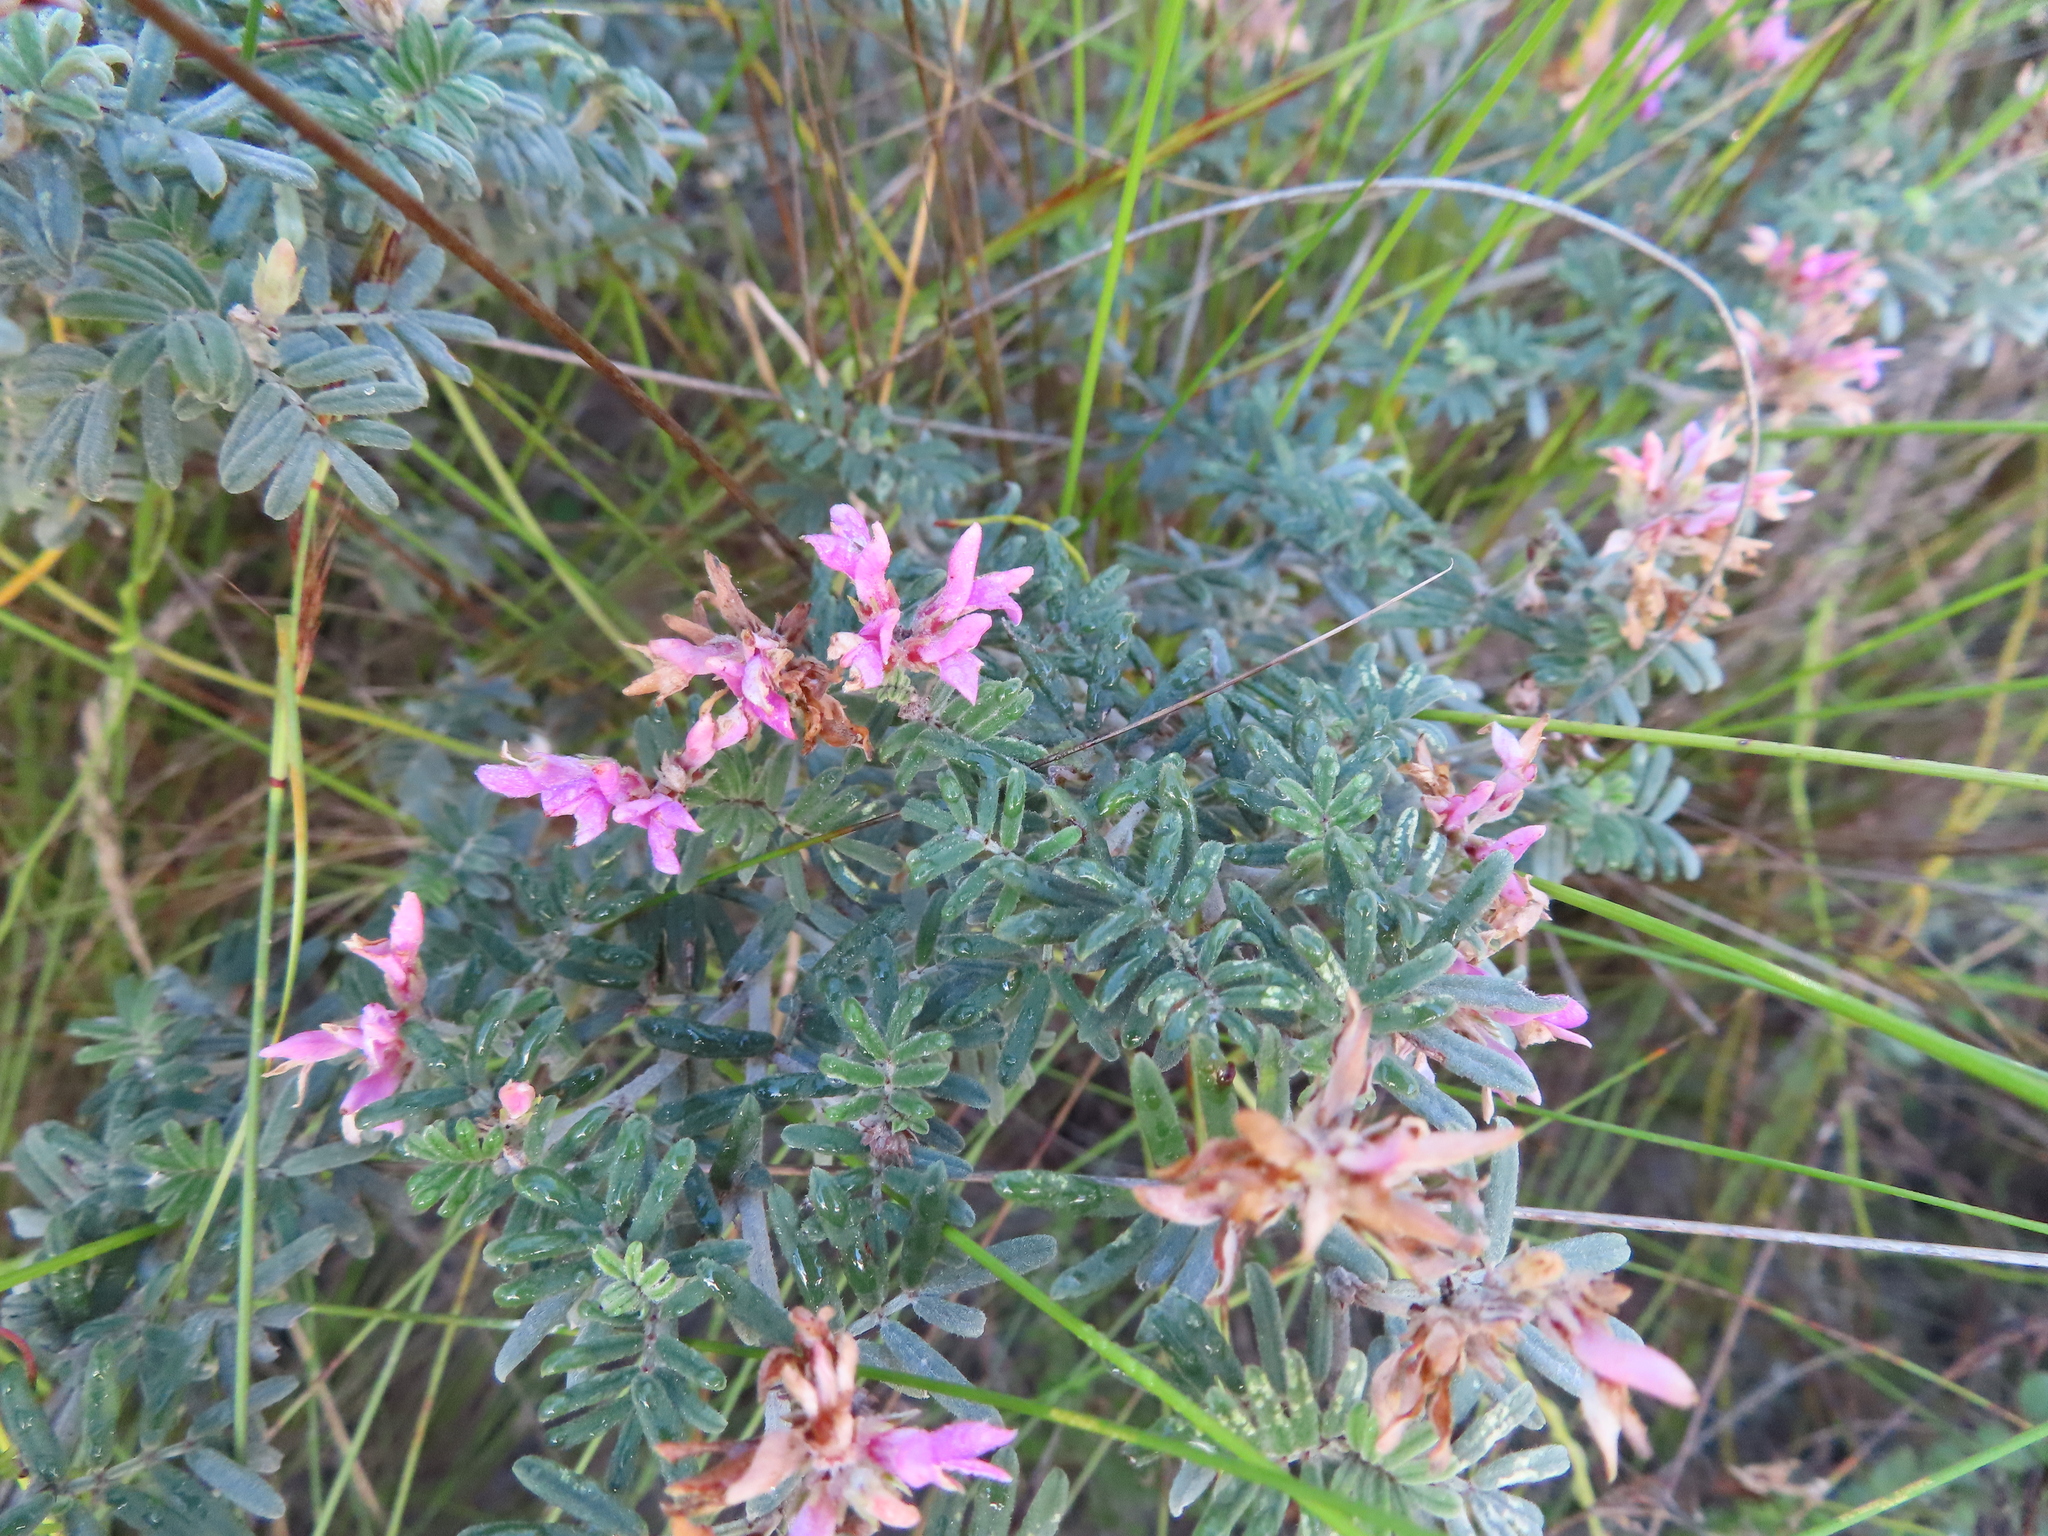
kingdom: Plantae
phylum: Tracheophyta
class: Magnoliopsida
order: Fabales
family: Fabaceae
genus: Microcharis
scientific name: Microcharis praetermissa
